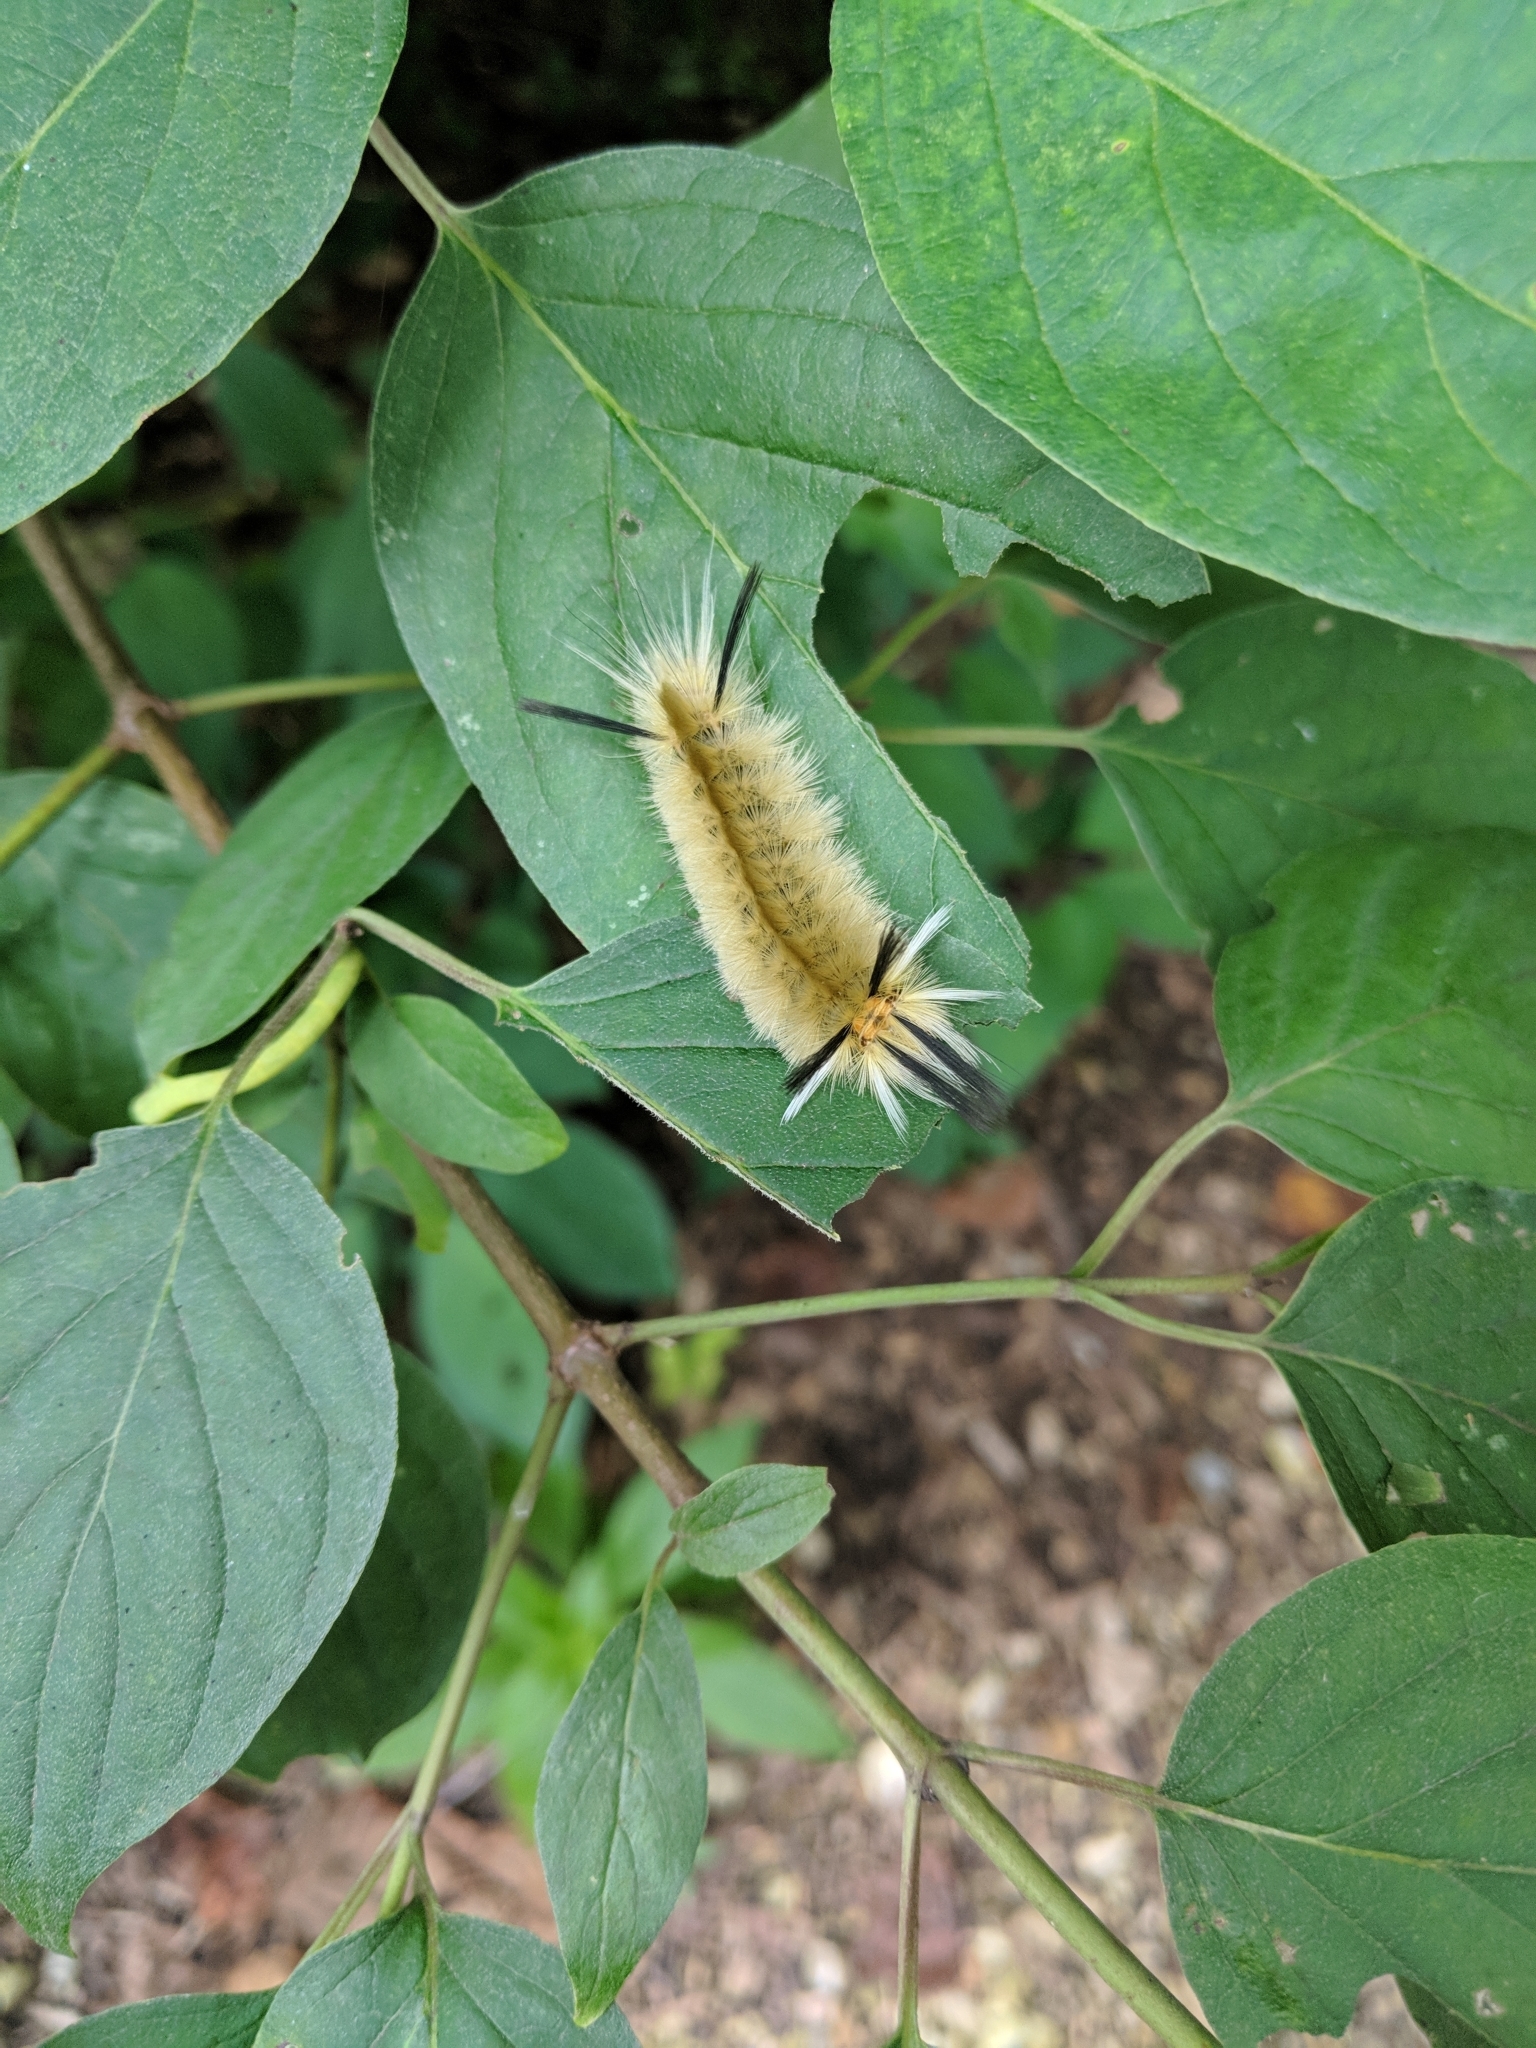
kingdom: Animalia
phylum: Arthropoda
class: Insecta
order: Lepidoptera
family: Erebidae
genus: Halysidota
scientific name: Halysidota tessellaris
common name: Banded tussock moth
